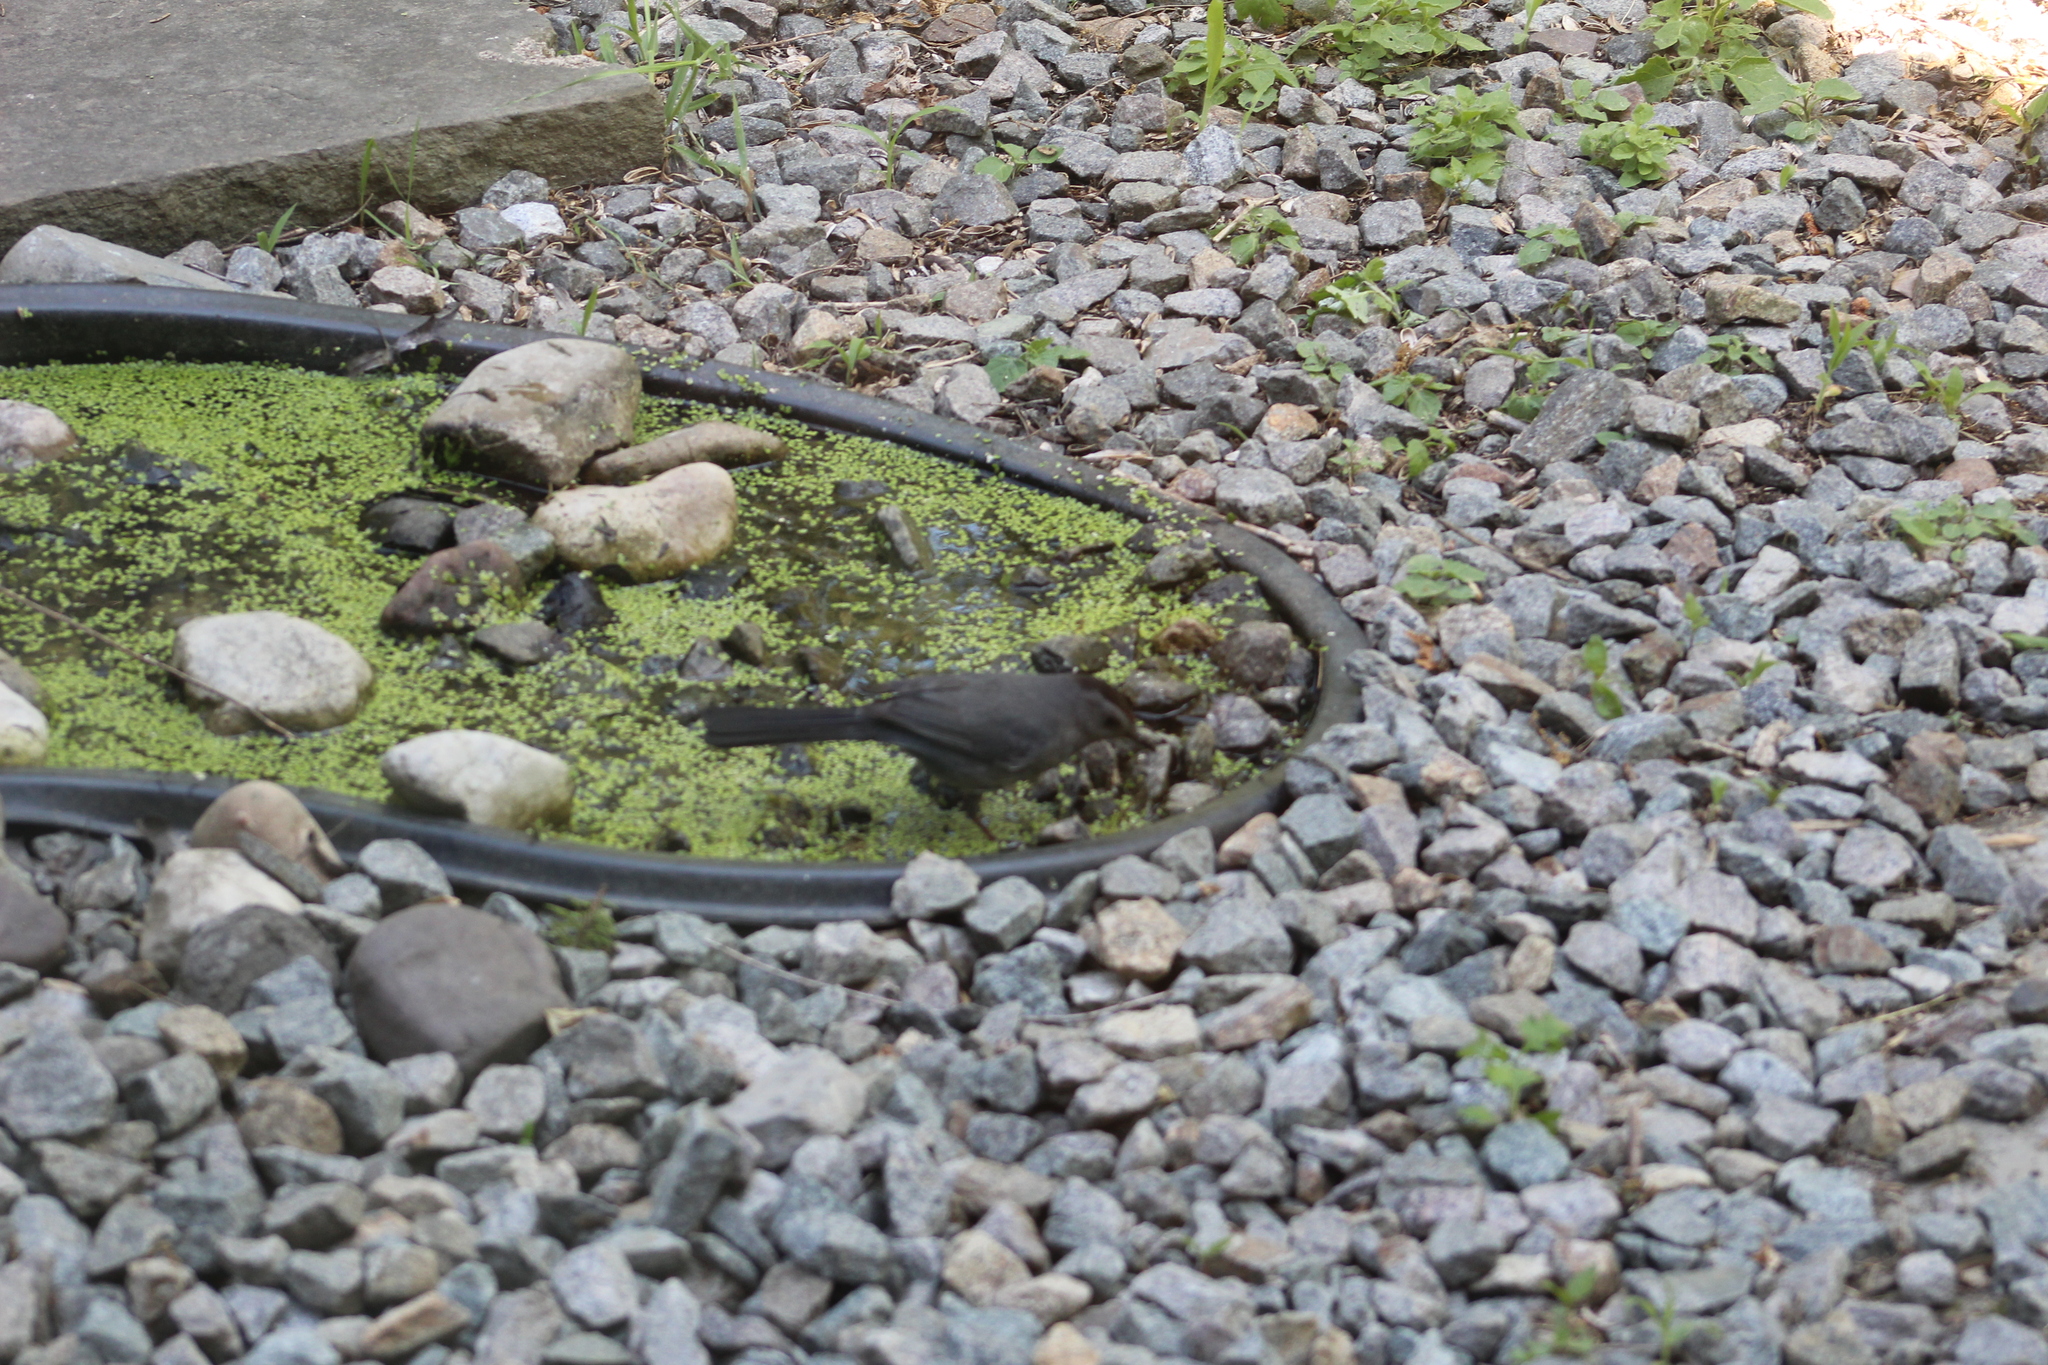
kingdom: Animalia
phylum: Chordata
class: Aves
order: Passeriformes
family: Mimidae
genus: Dumetella
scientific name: Dumetella carolinensis
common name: Gray catbird
